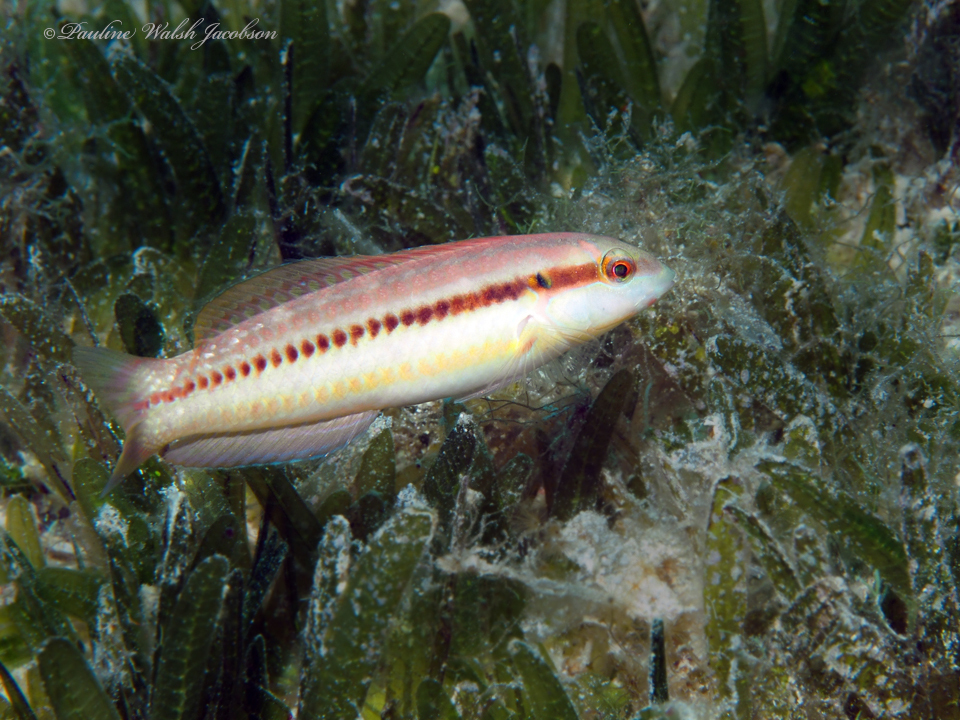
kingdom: Animalia
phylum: Chordata
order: Perciformes
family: Labridae
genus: Halichoeres
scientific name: Halichoeres bivittatus
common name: Slippery dick
